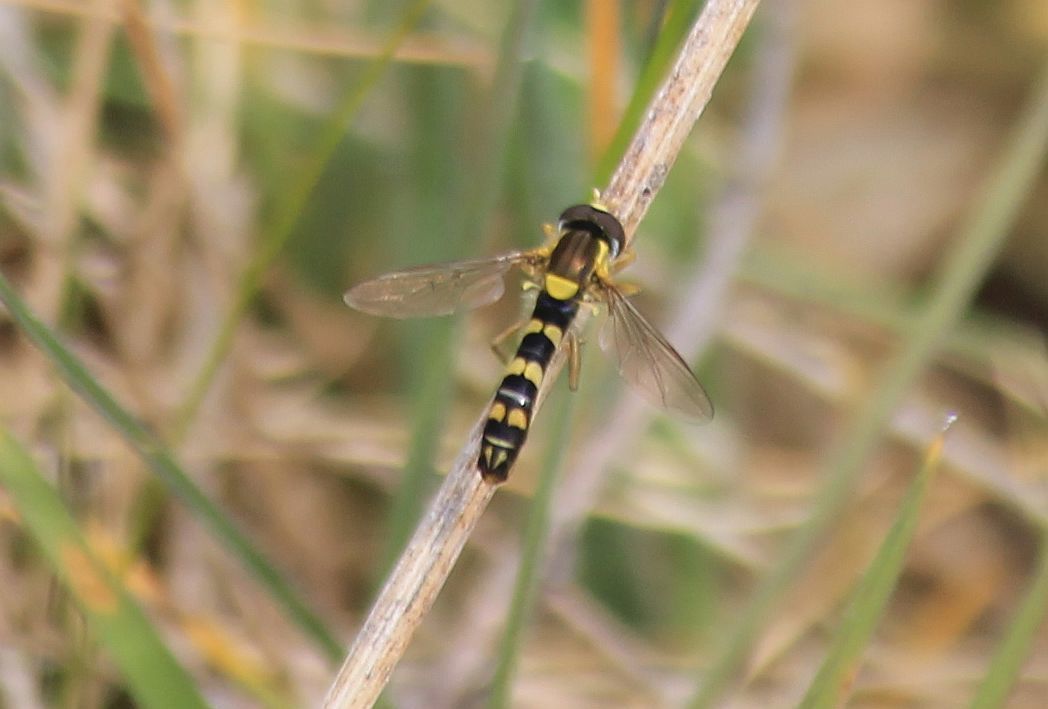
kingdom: Animalia
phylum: Arthropoda
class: Insecta
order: Diptera
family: Syrphidae
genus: Sphaerophoria
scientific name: Sphaerophoria scripta
